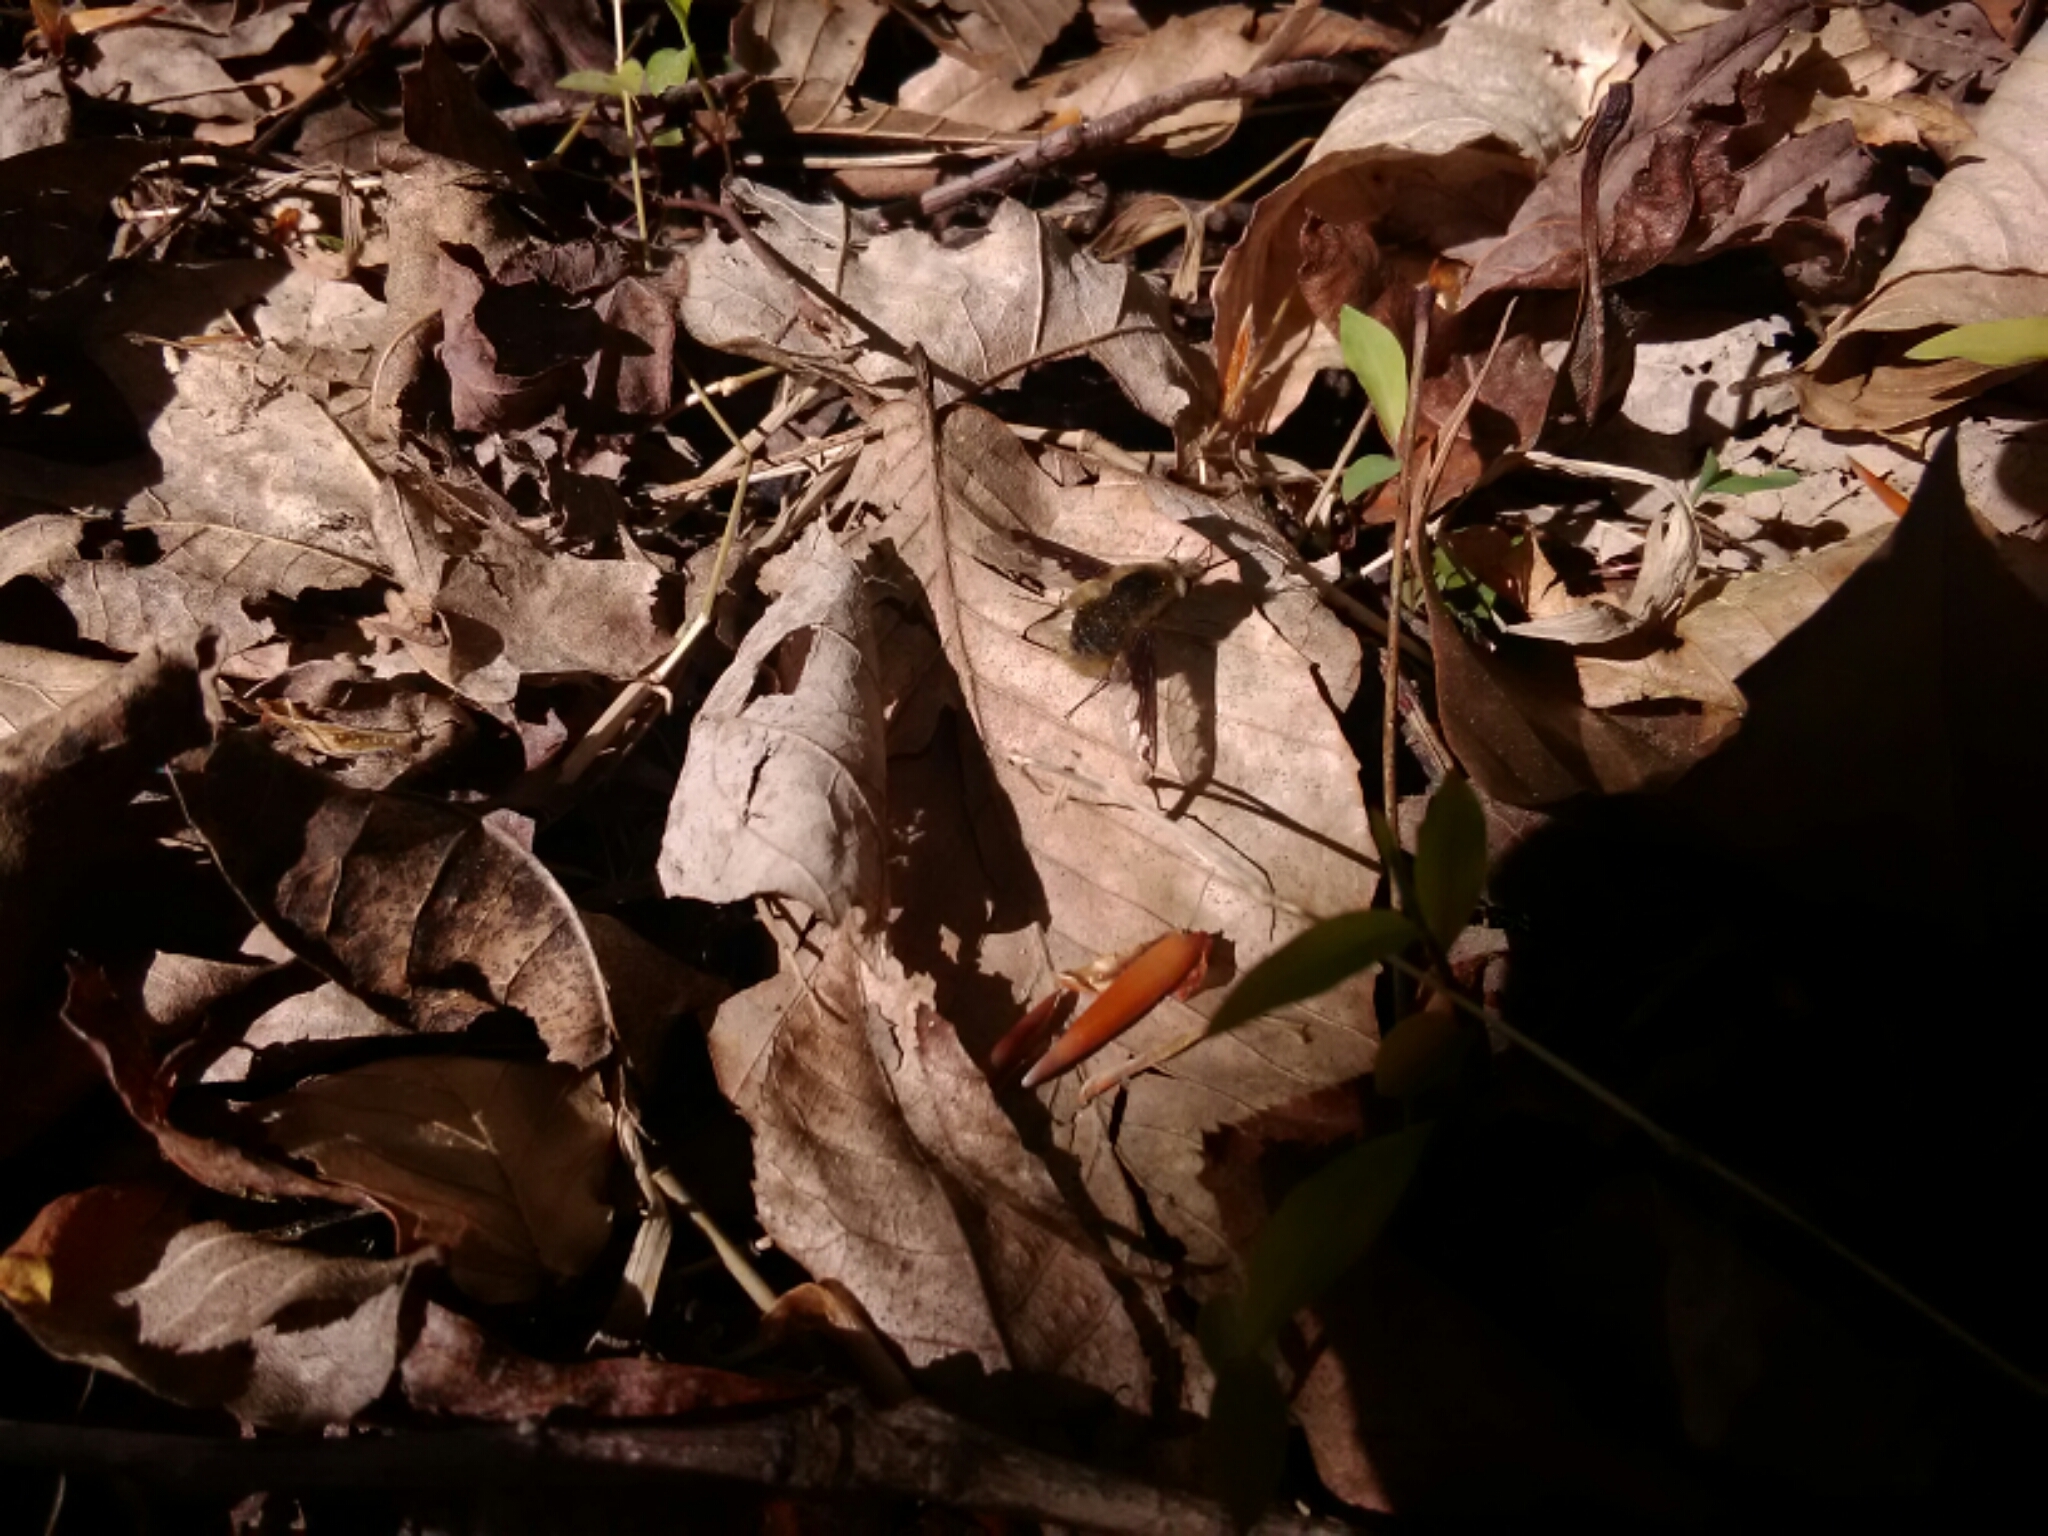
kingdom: Animalia
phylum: Arthropoda
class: Insecta
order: Diptera
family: Bombyliidae
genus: Bombylius
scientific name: Bombylius major
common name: Bee fly
